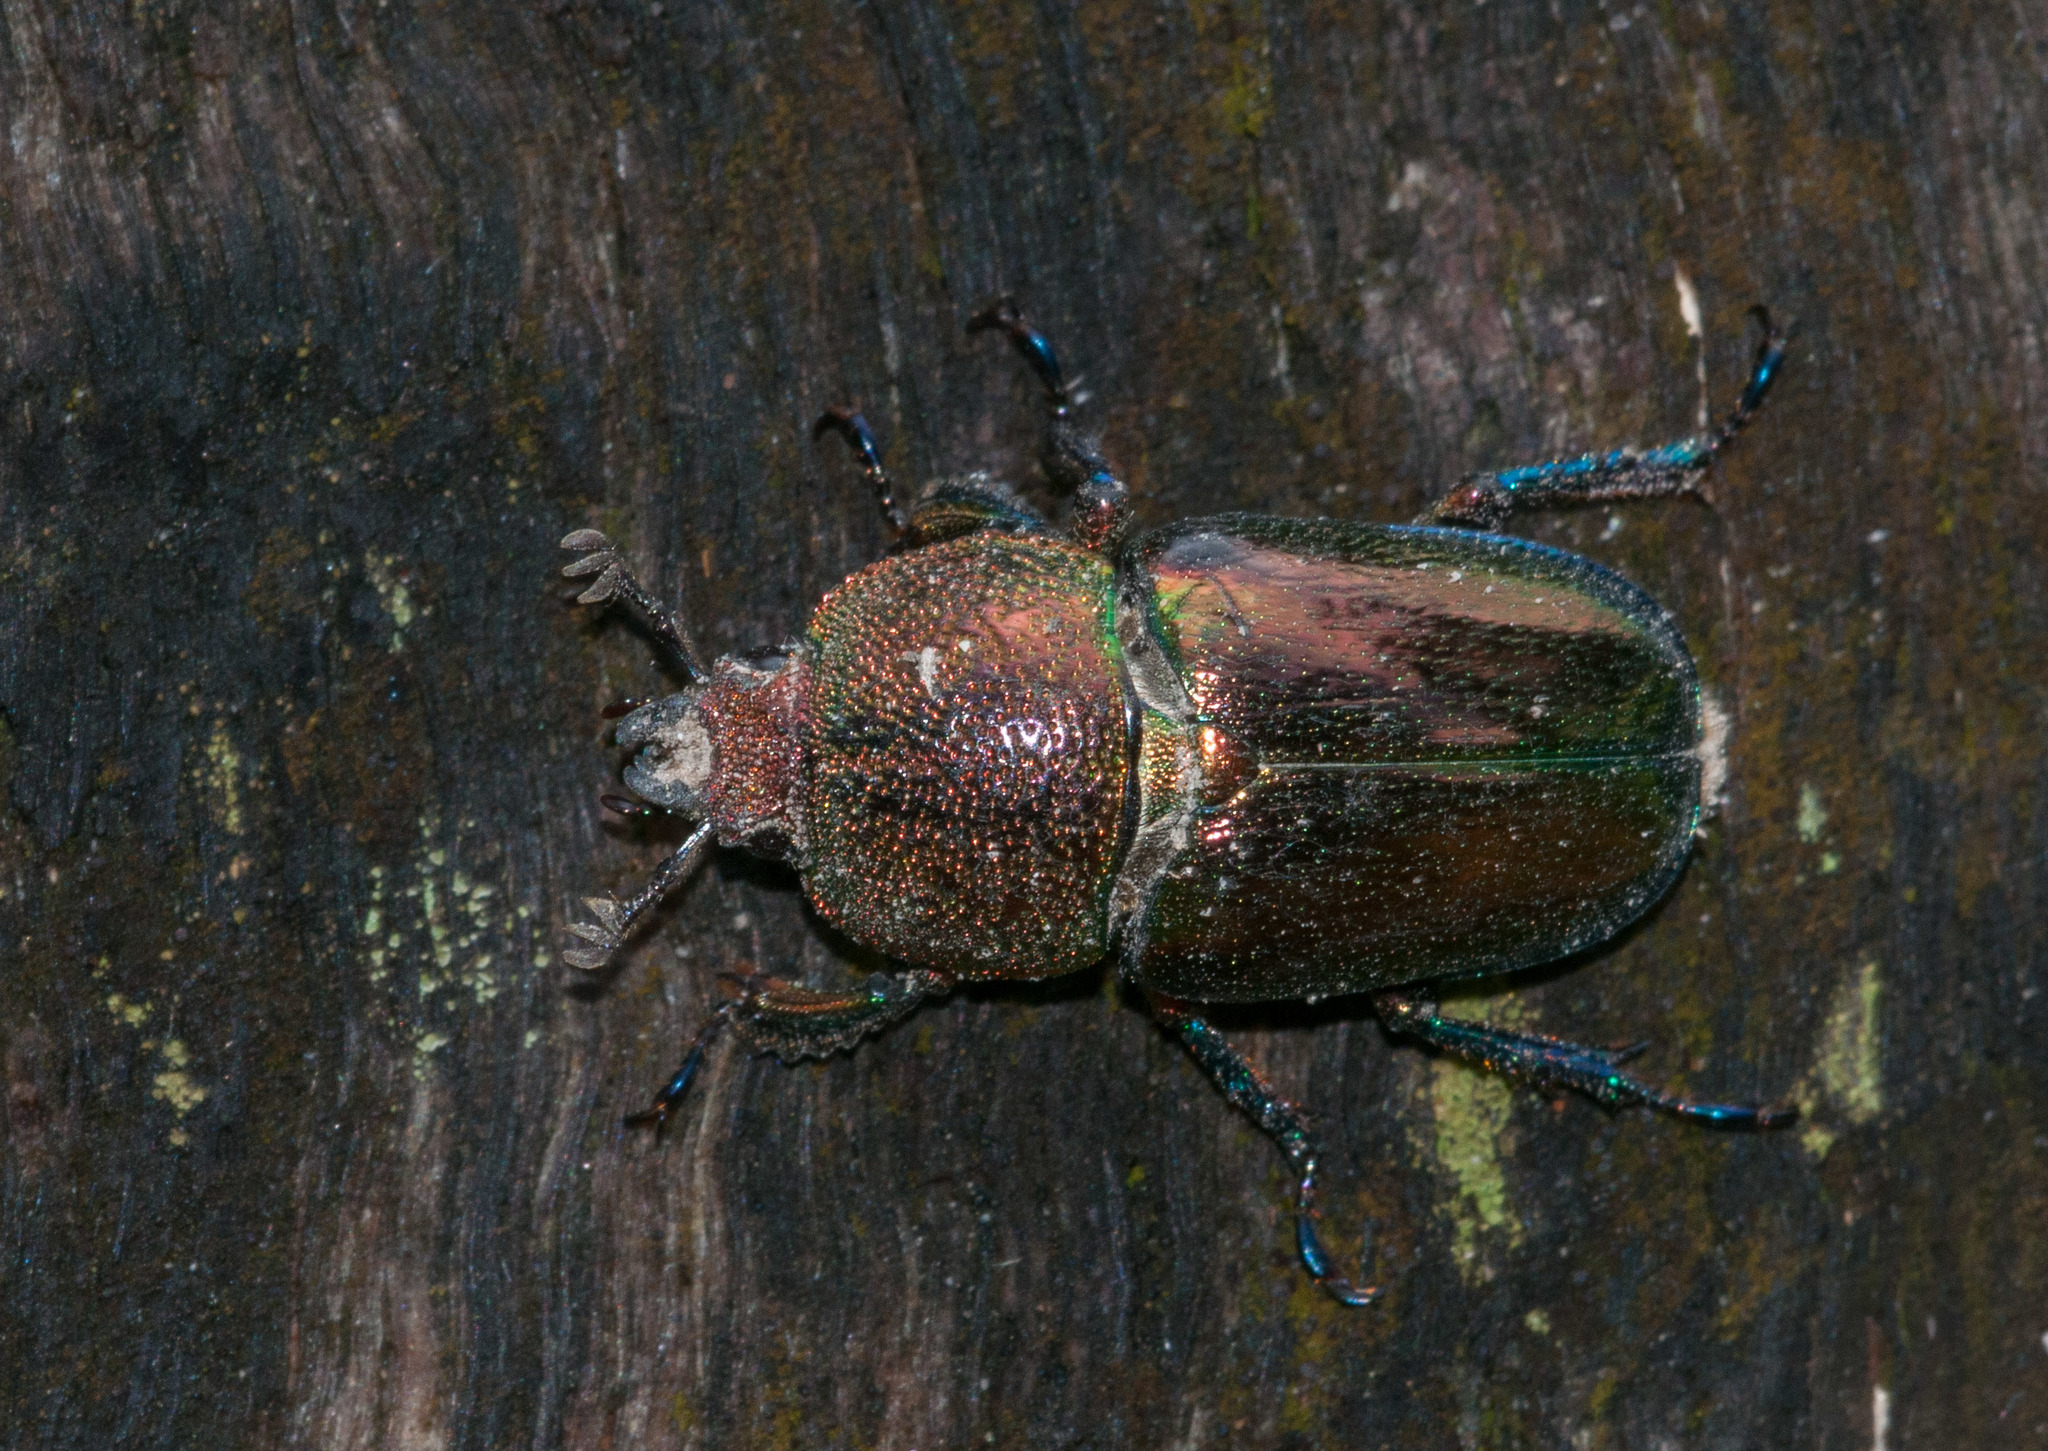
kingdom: Animalia
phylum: Arthropoda
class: Insecta
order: Coleoptera
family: Lucanidae
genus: Lamprima
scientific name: Lamprima aurata
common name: Golden stag beetle
